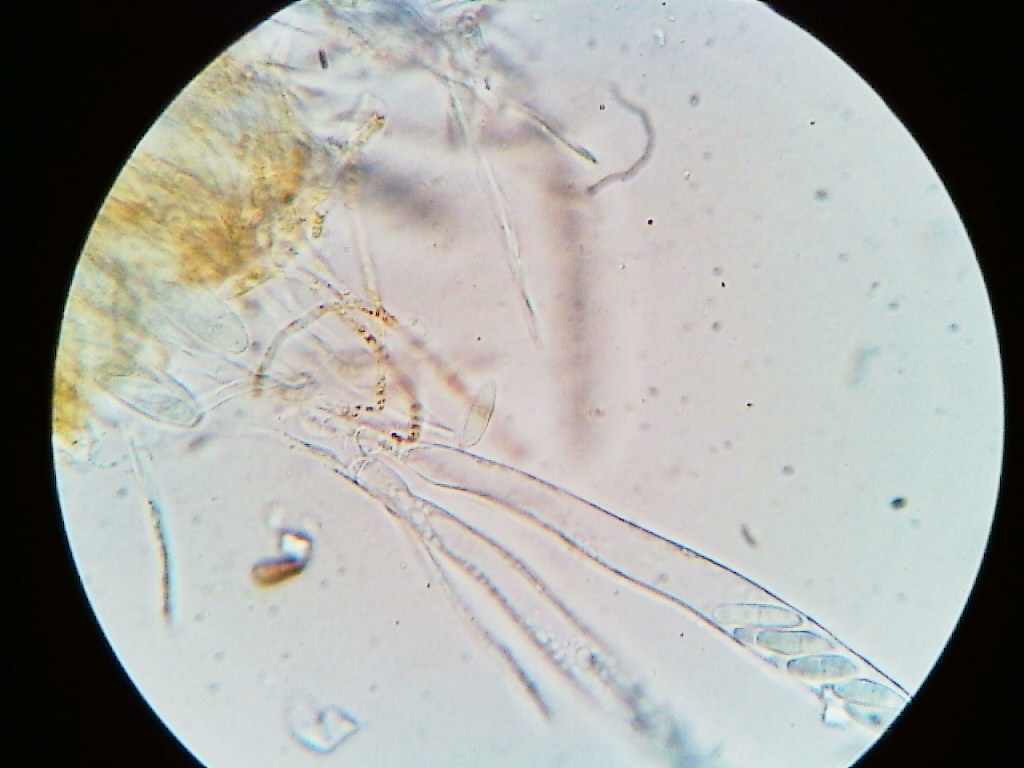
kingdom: Fungi
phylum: Ascomycota
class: Leotiomycetes
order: Helotiales
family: Arachnopezizaceae
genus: Arachnopeziza
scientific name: Arachnopeziza trabinelloides
